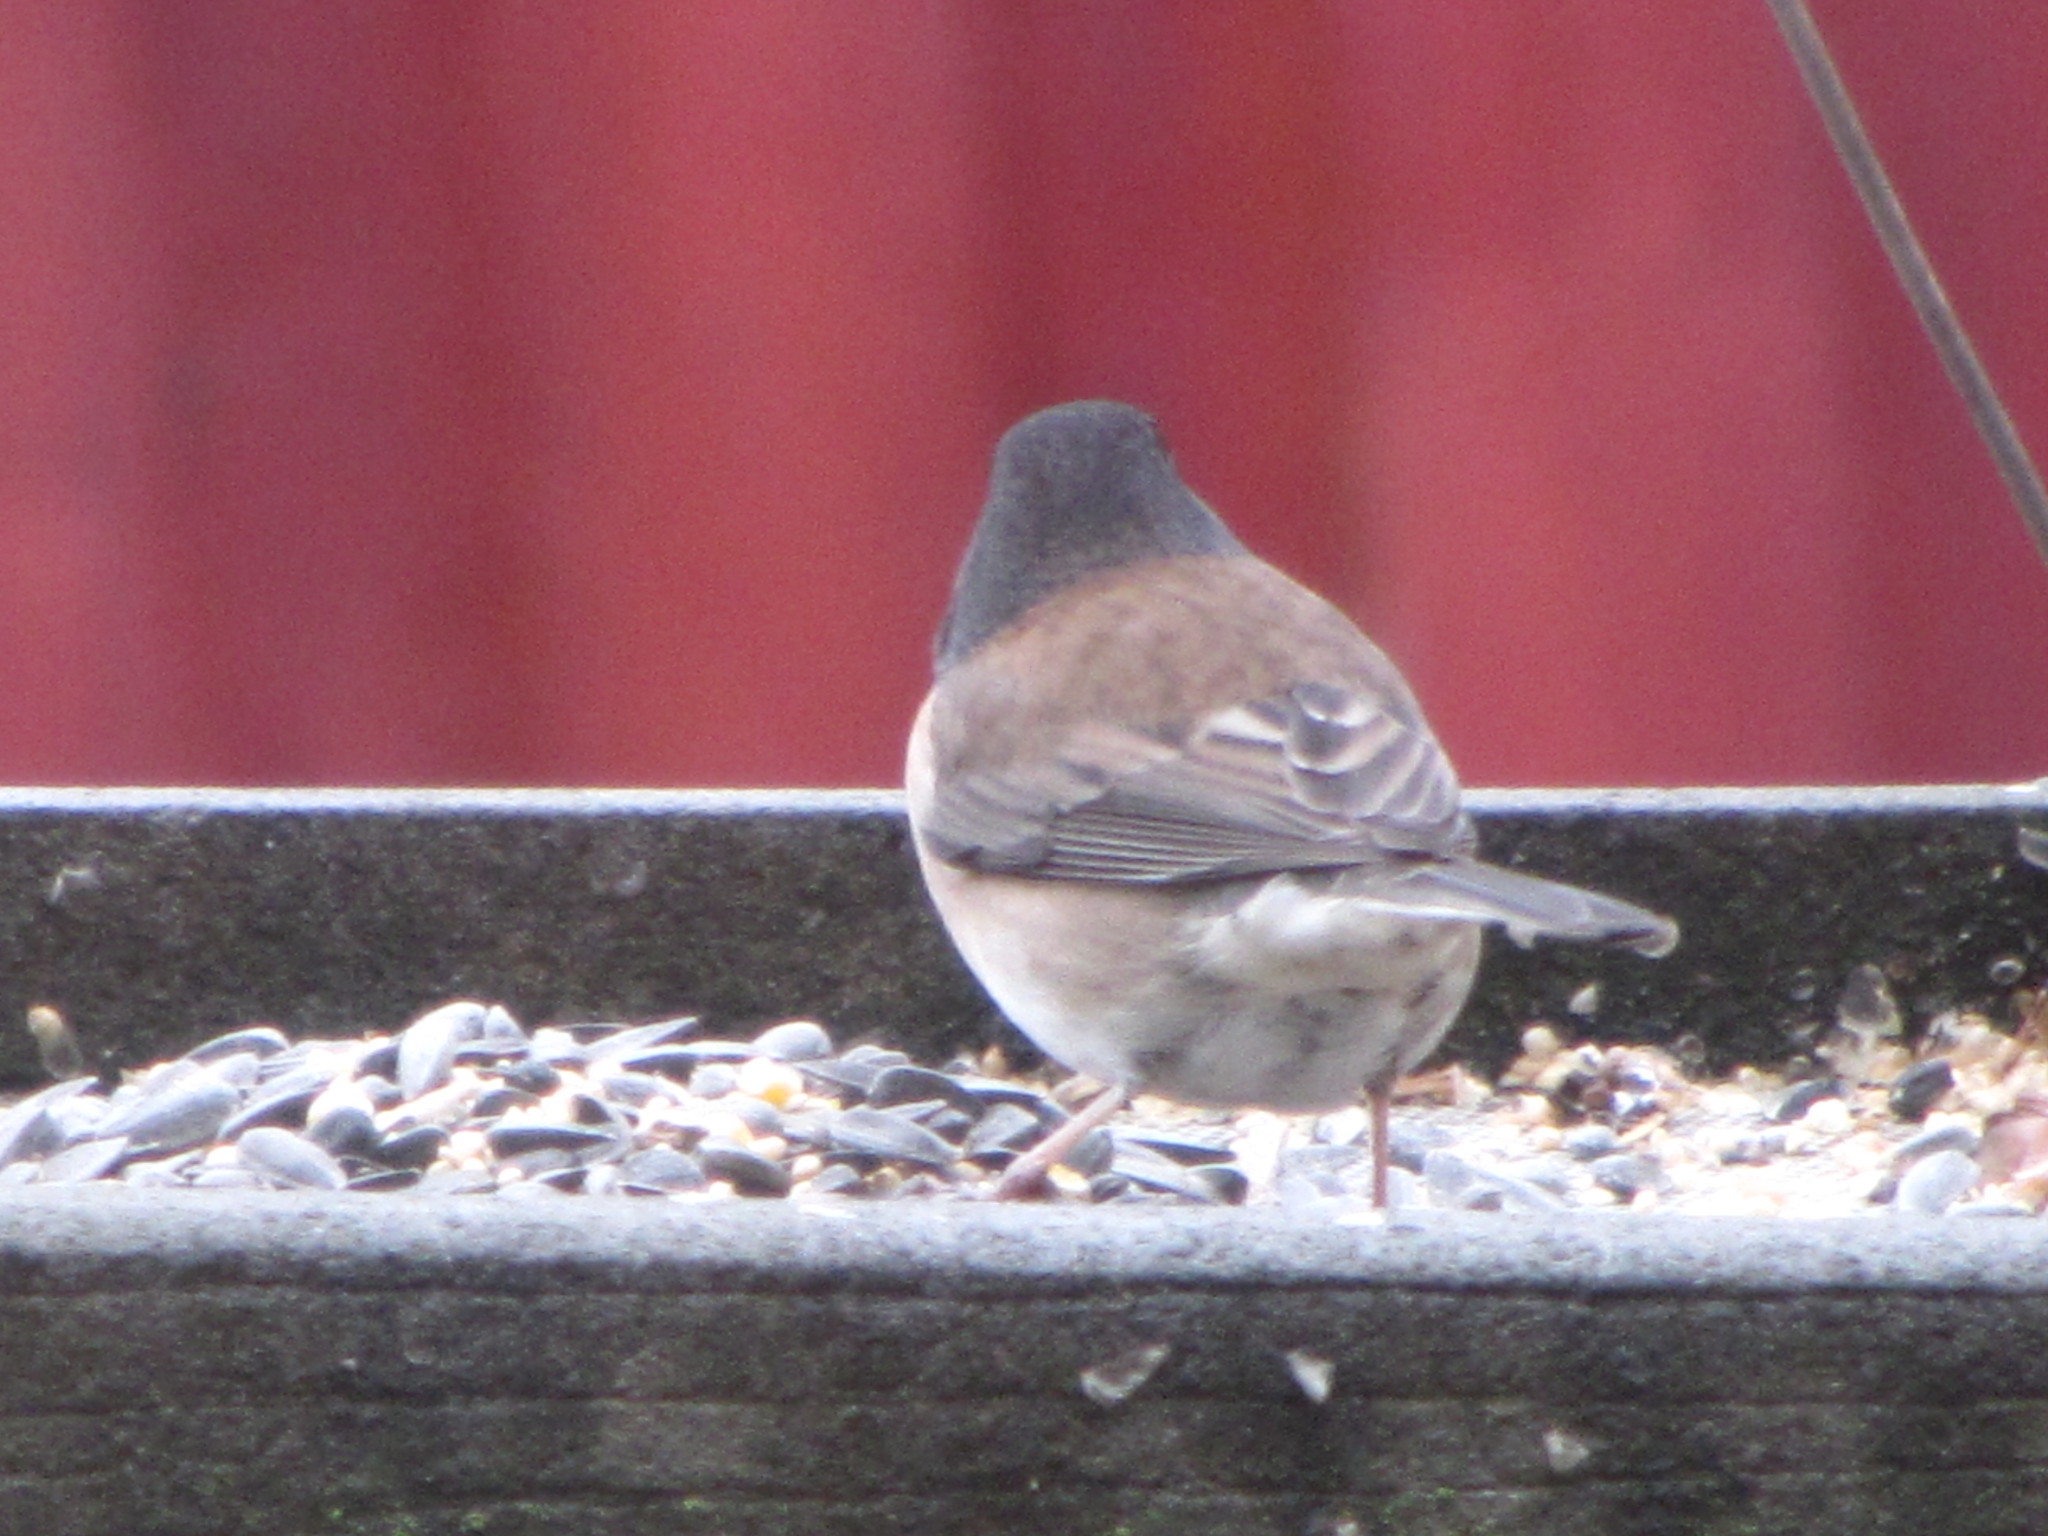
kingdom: Animalia
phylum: Chordata
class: Aves
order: Passeriformes
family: Passerellidae
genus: Junco
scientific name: Junco hyemalis
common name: Dark-eyed junco
